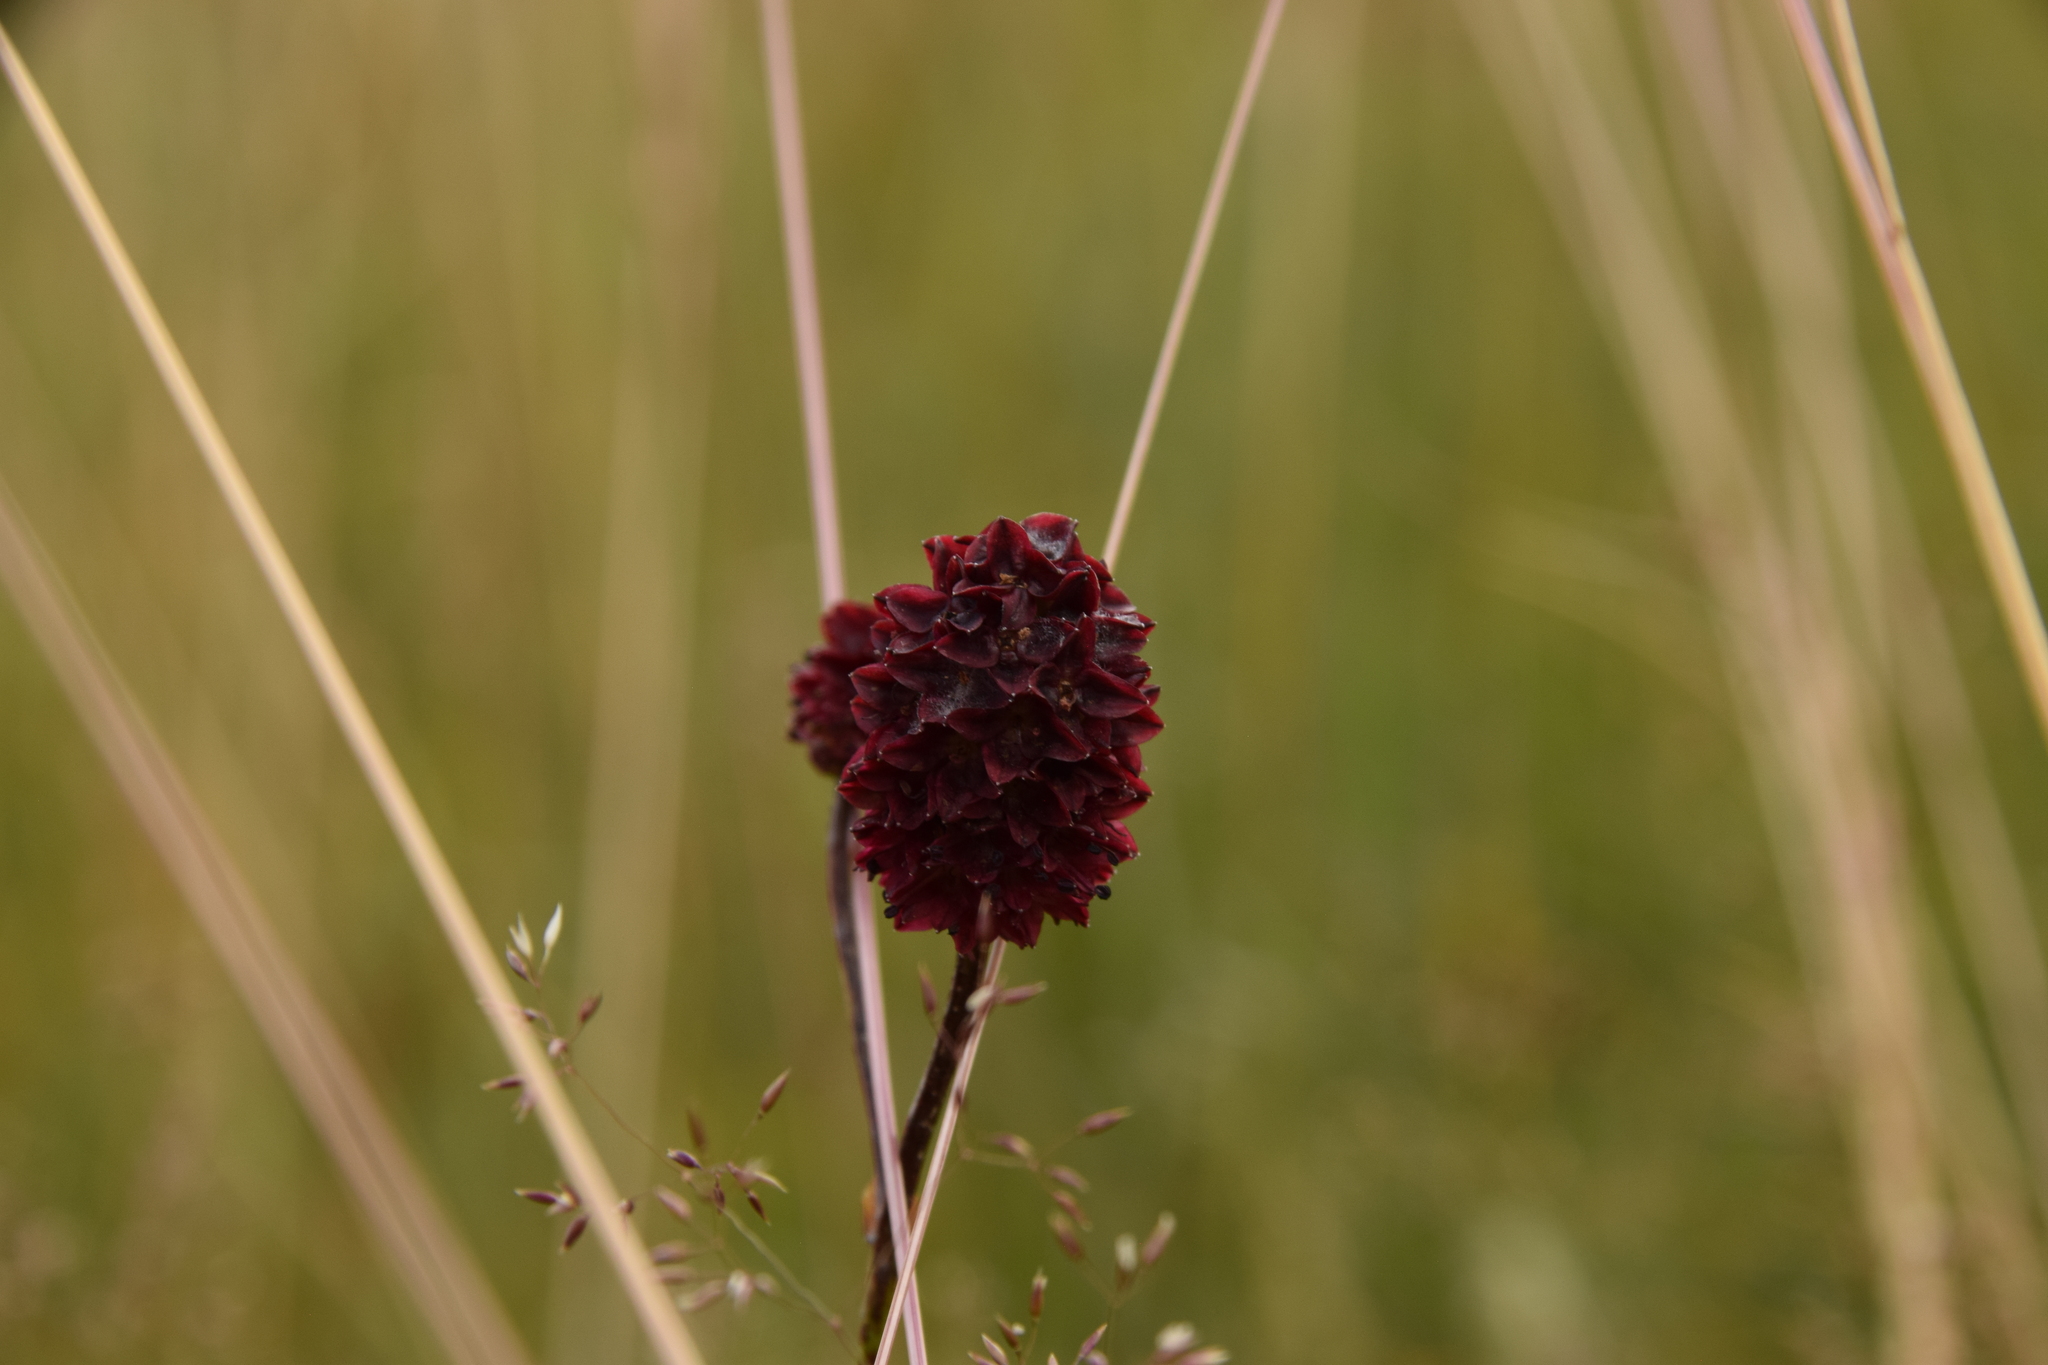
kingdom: Plantae
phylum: Tracheophyta
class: Magnoliopsida
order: Rosales
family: Rosaceae
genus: Sanguisorba
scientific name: Sanguisorba officinalis
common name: Great burnet
